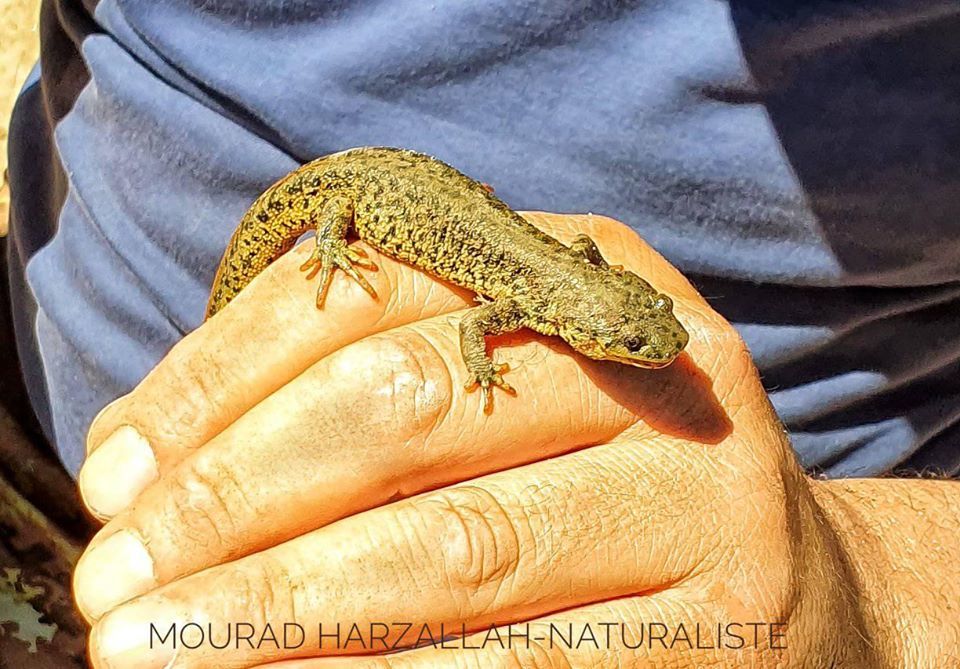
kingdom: Animalia
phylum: Chordata
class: Amphibia
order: Caudata
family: Salamandridae
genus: Pleurodeles
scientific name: Pleurodeles nebulosus
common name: Algerian ribbed newt
